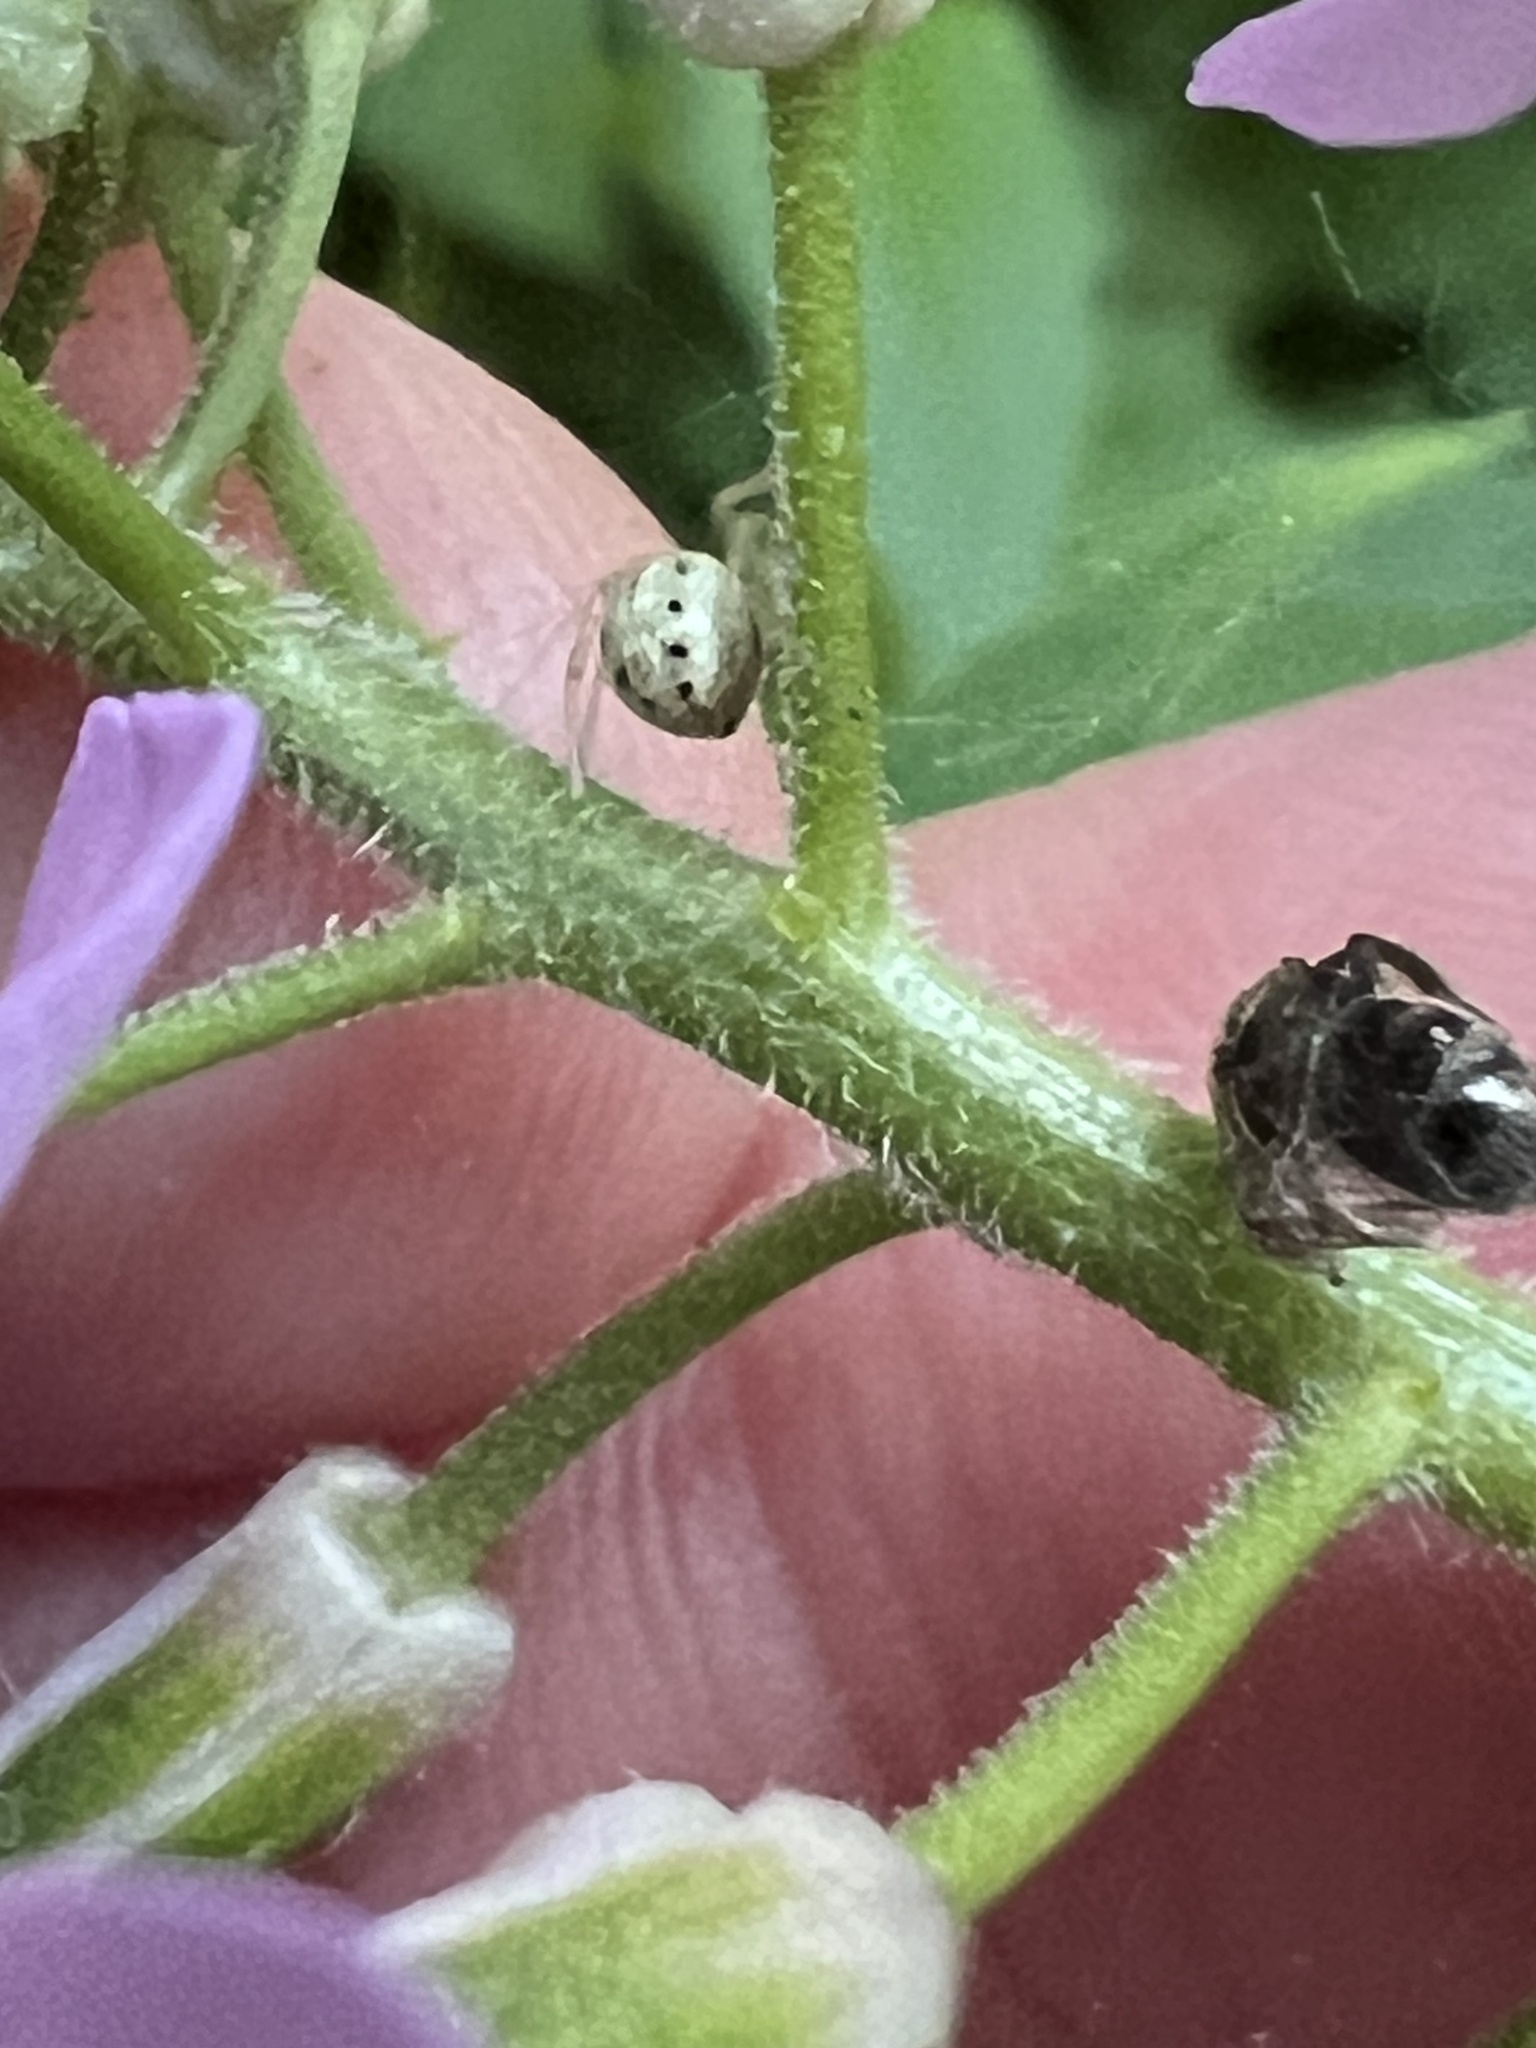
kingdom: Animalia
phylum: Arthropoda
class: Arachnida
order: Araneae
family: Theridiidae
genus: Enoplognatha
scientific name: Enoplognatha ovata
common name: Common candy-striped spider
